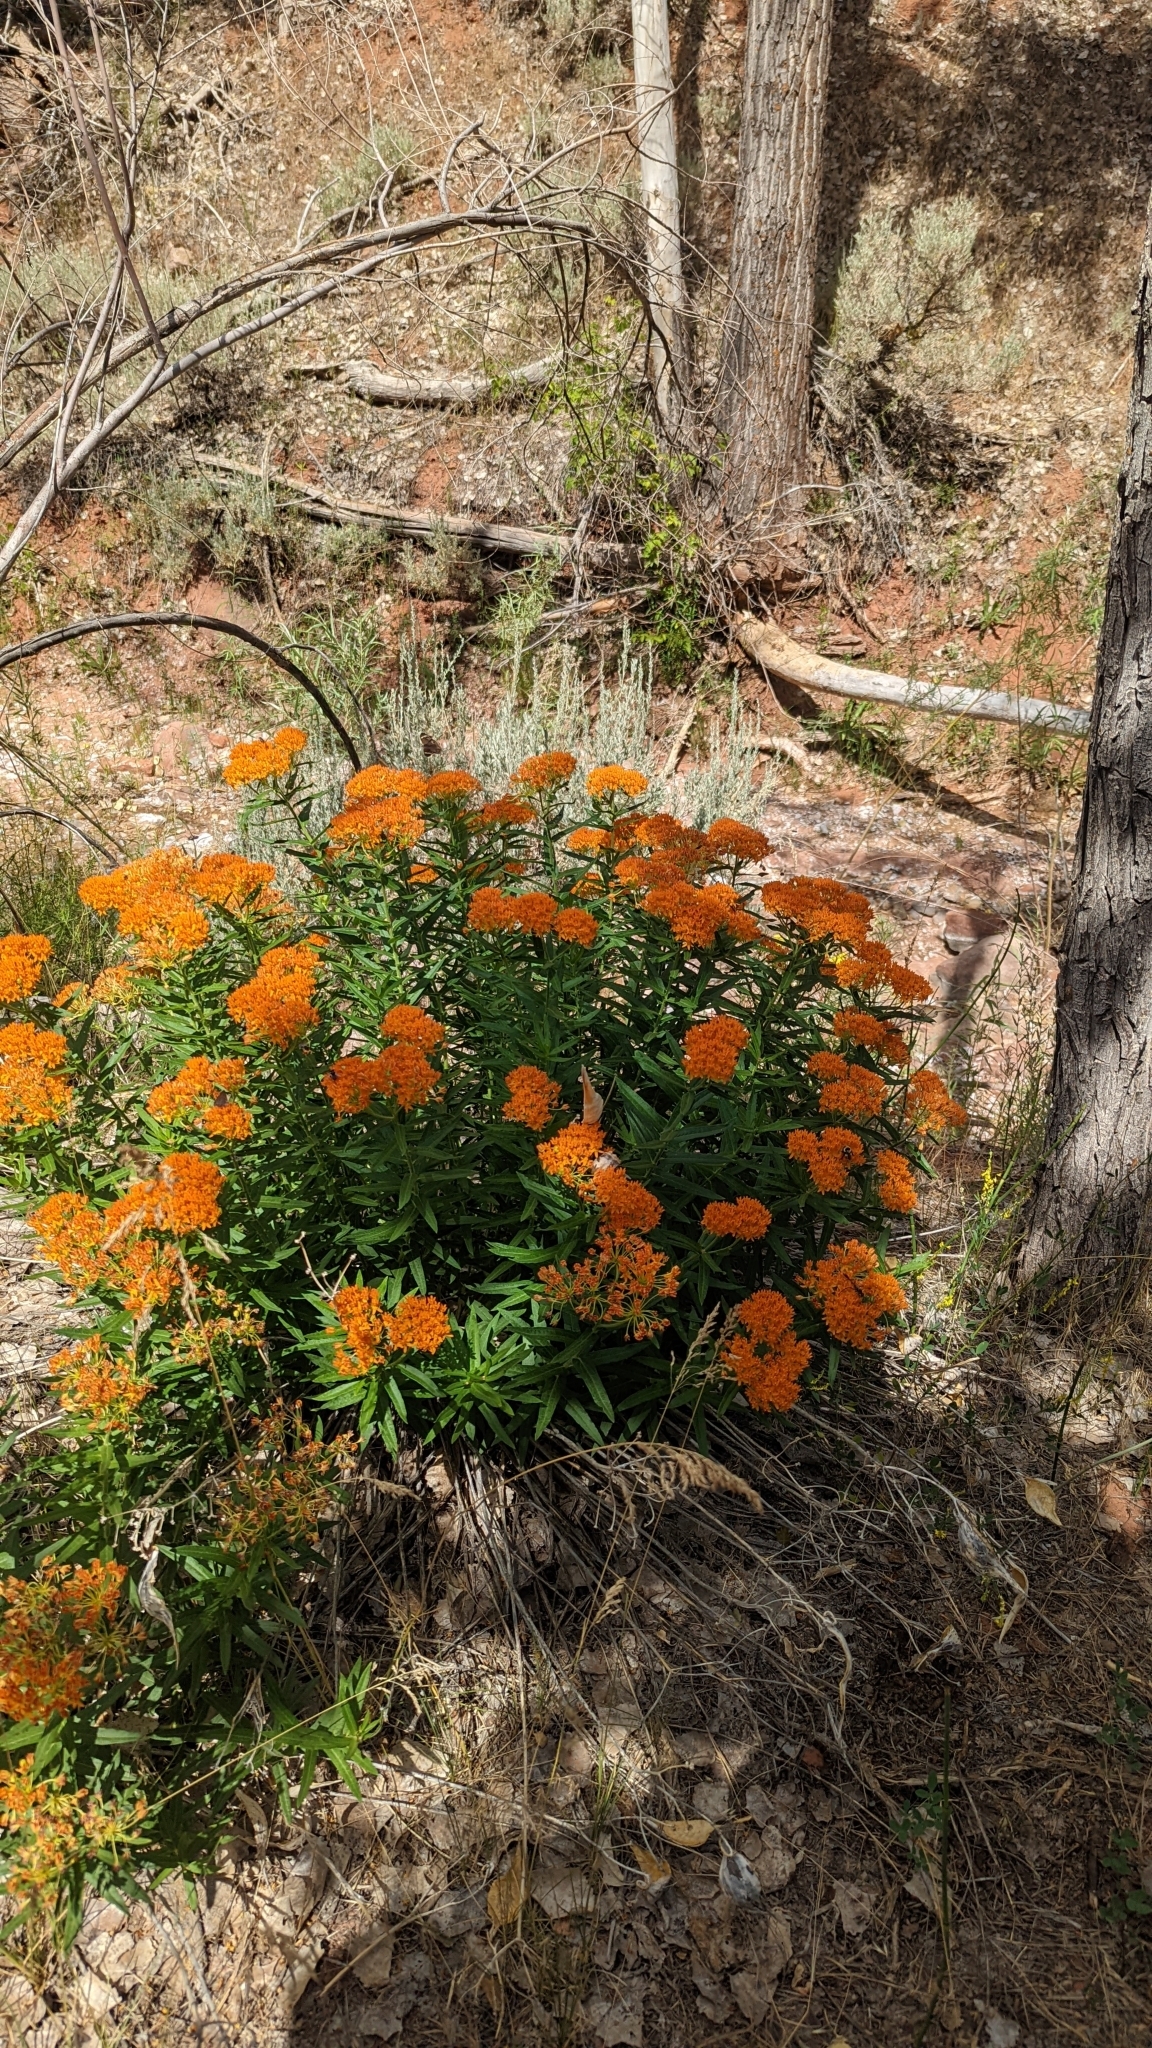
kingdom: Plantae
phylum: Tracheophyta
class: Magnoliopsida
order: Gentianales
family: Apocynaceae
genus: Asclepias
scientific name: Asclepias tuberosa
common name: Butterfly milkweed
